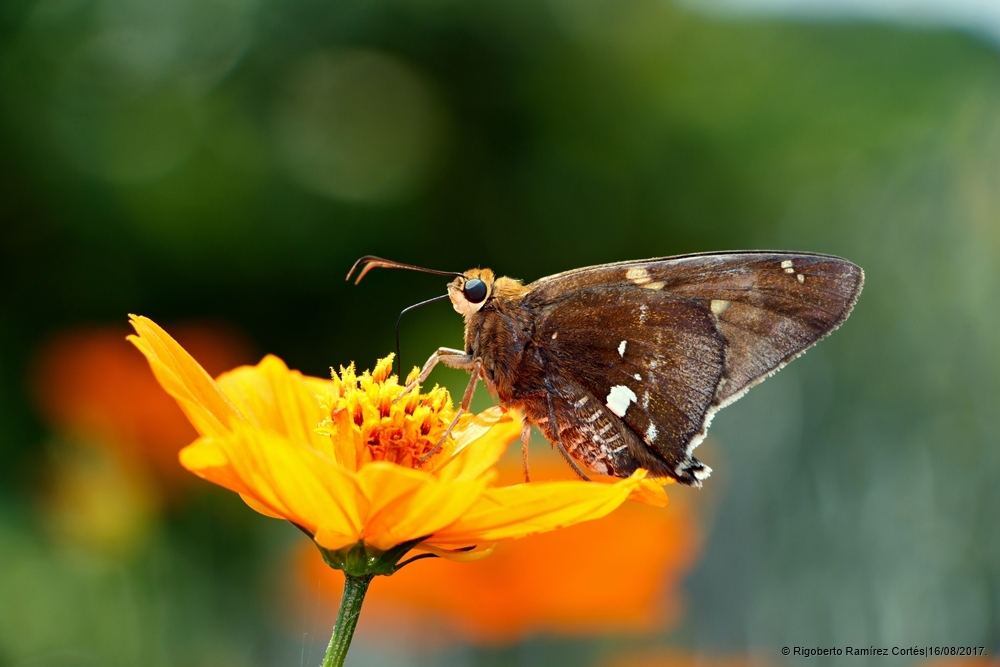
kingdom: Animalia
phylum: Arthropoda
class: Insecta
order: Lepidoptera
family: Hesperiidae
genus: Epargyreus
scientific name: Epargyreus aspina
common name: Spineless silverdrop
